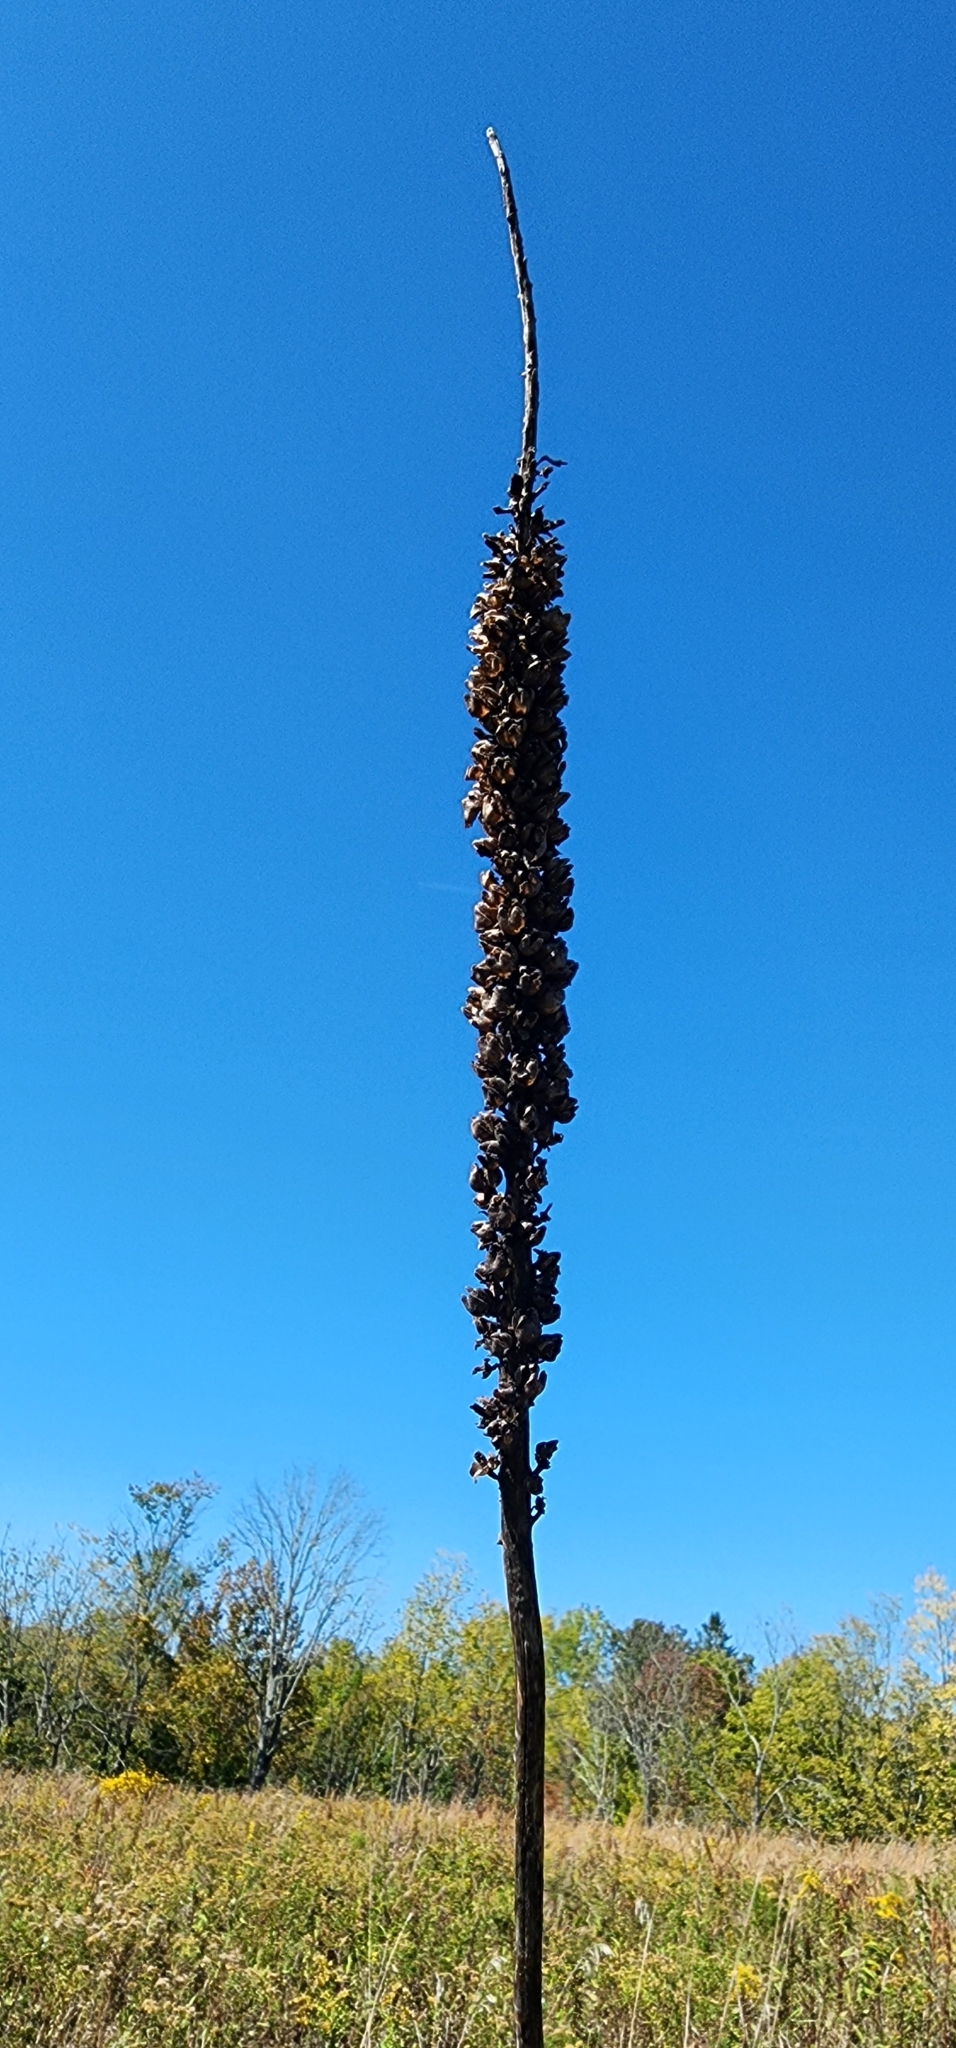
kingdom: Plantae
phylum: Tracheophyta
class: Magnoliopsida
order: Lamiales
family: Scrophulariaceae
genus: Verbascum
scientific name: Verbascum thapsus
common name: Common mullein
